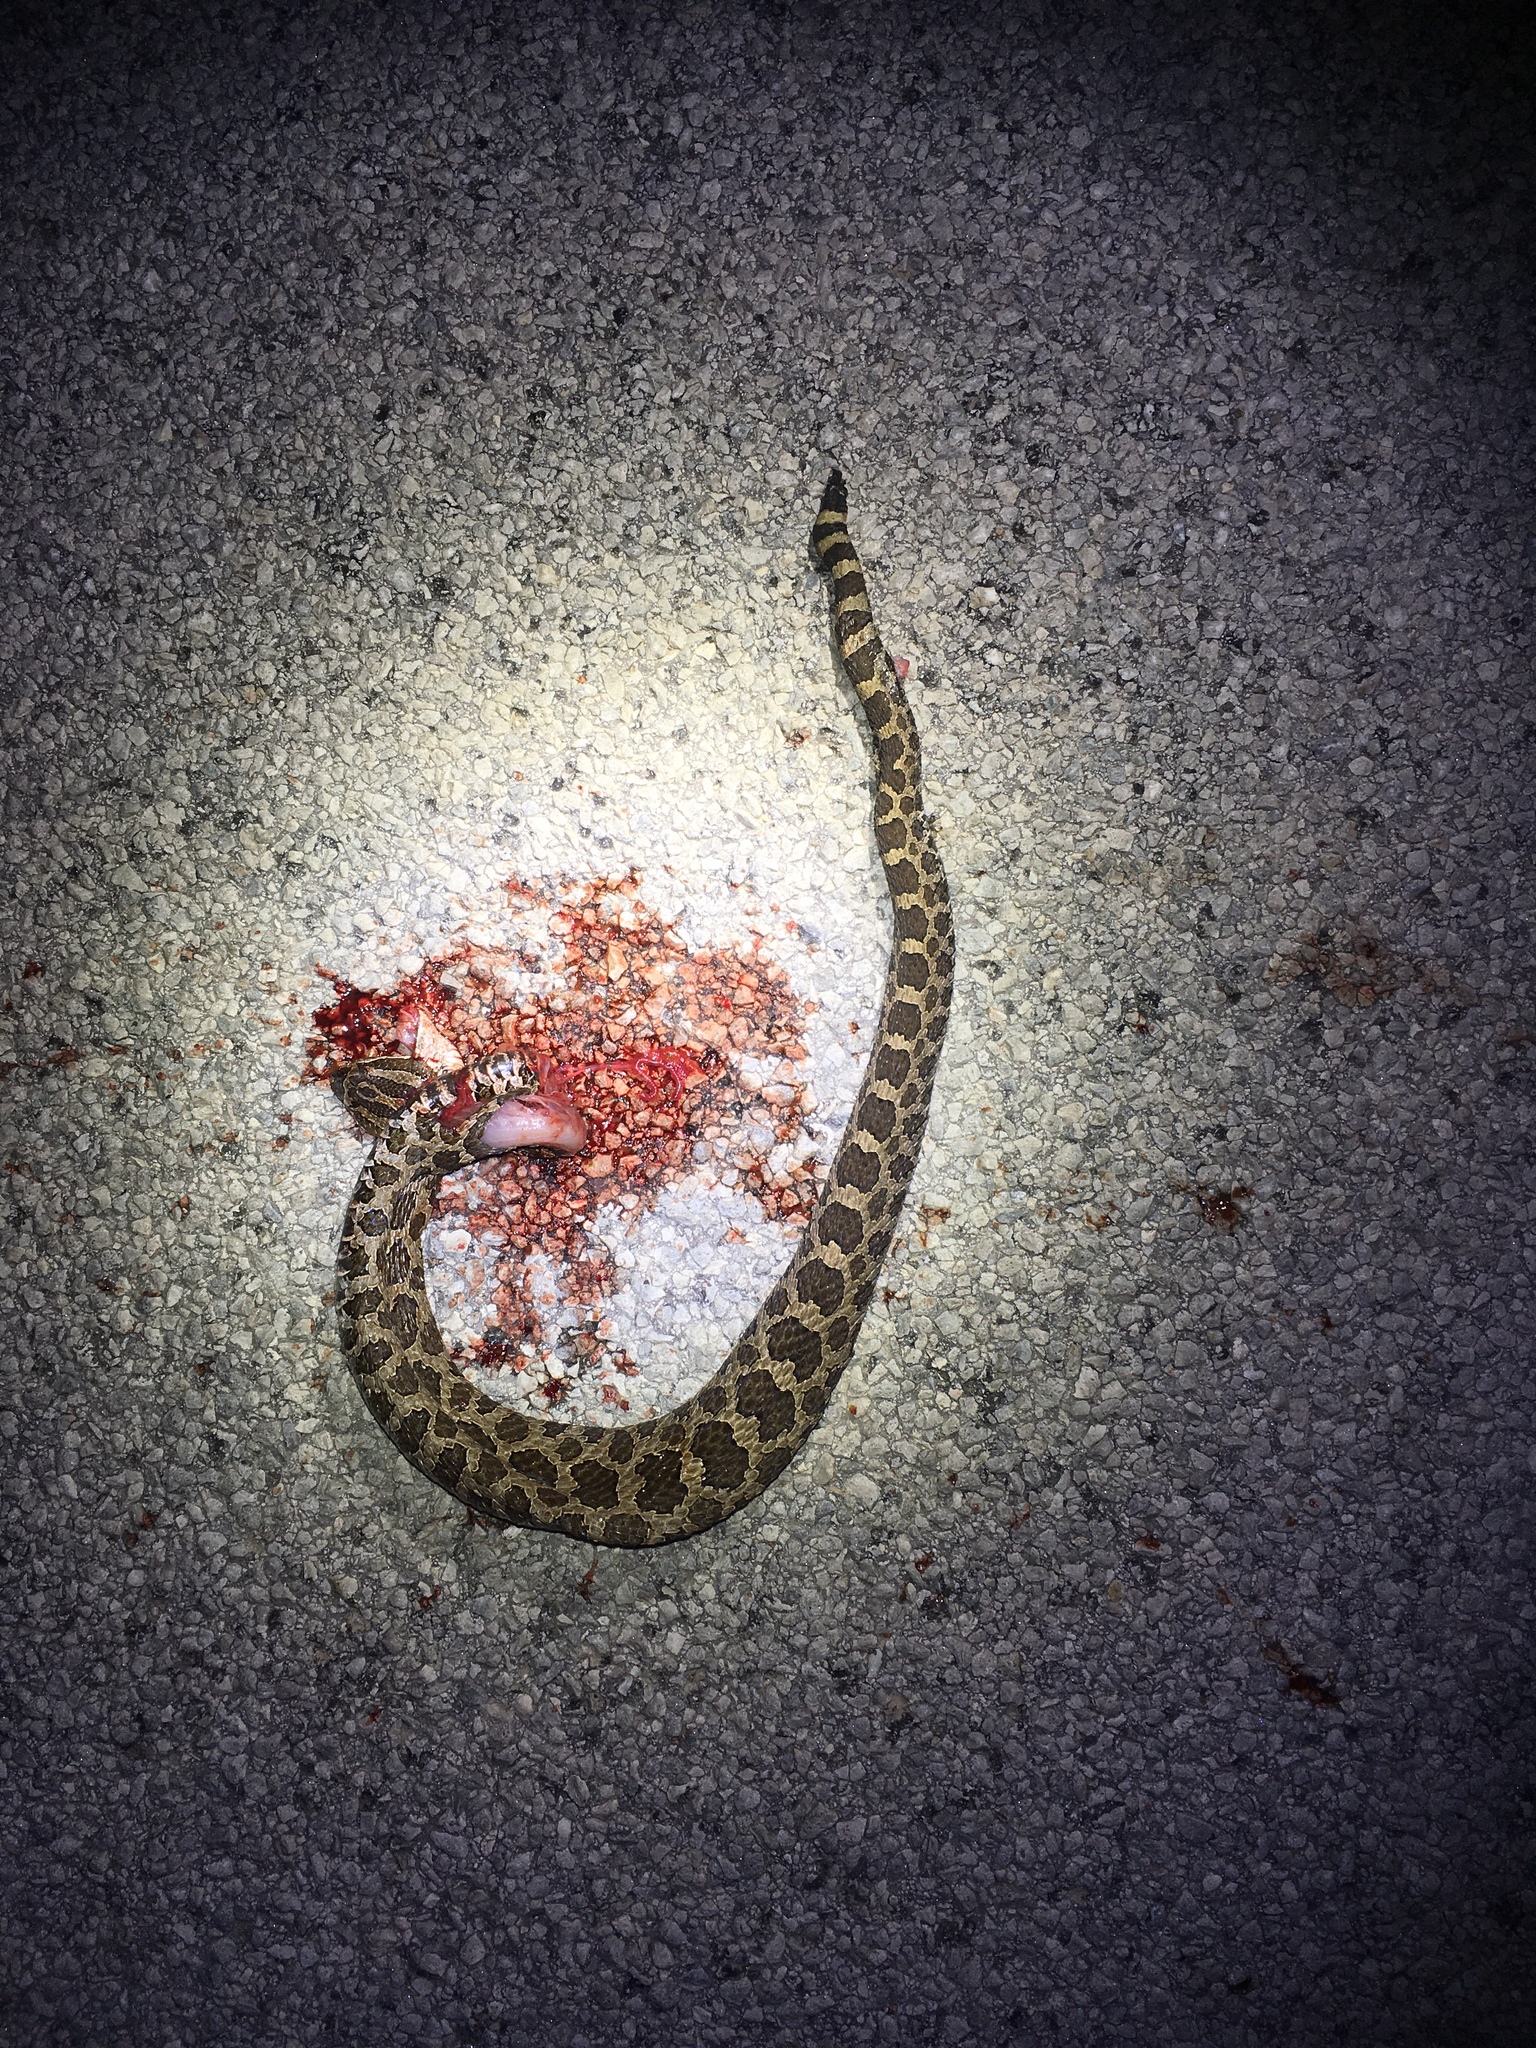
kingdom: Animalia
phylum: Chordata
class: Squamata
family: Viperidae
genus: Sistrurus
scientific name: Sistrurus catenatus
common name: Massasauga
